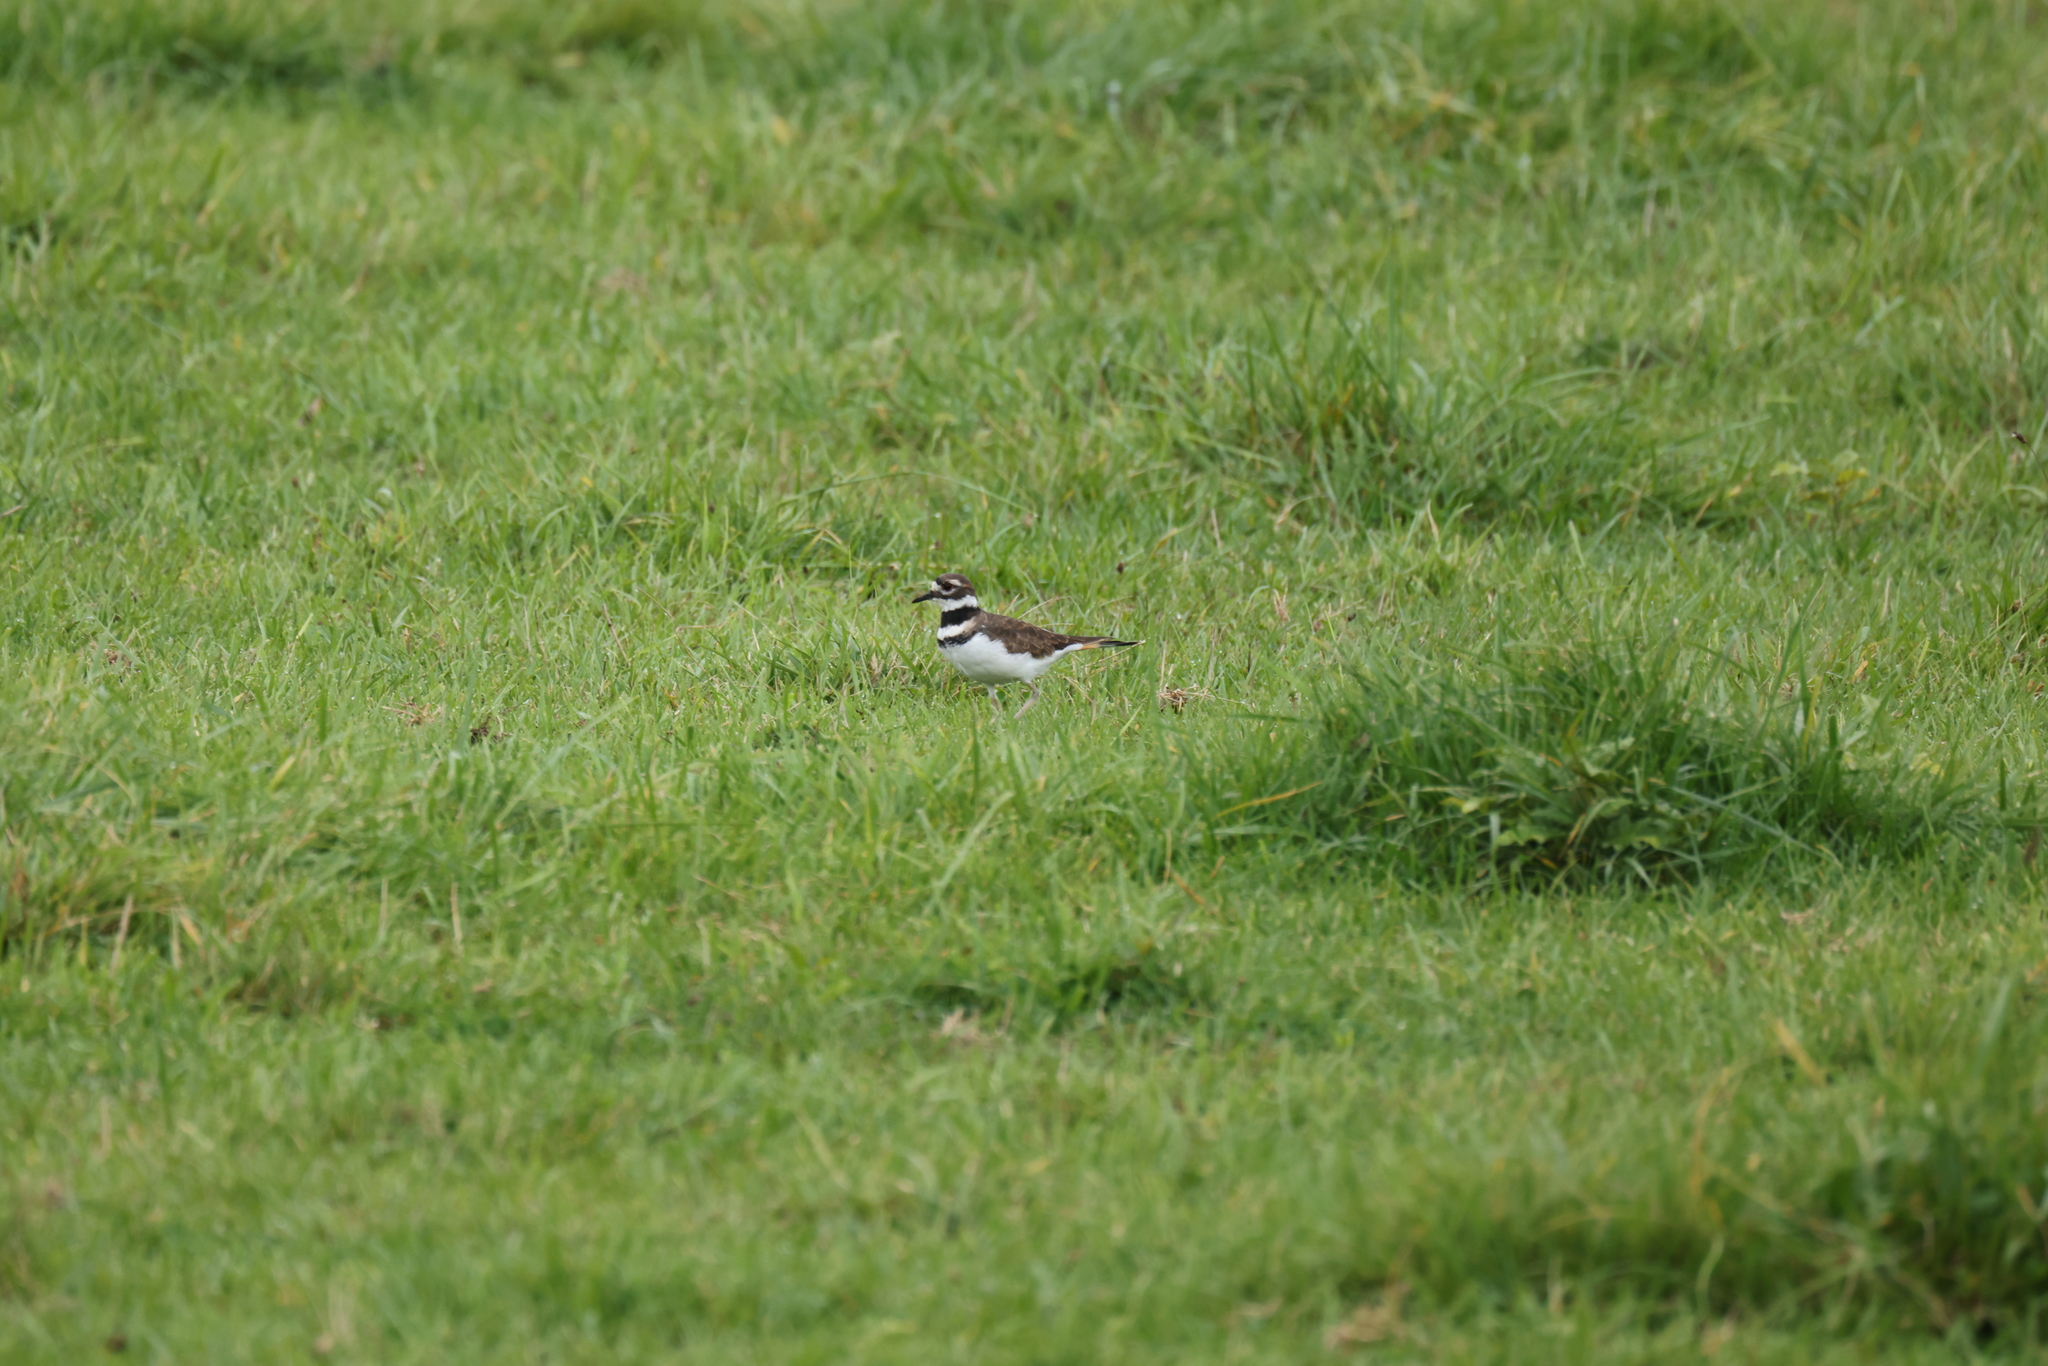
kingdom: Animalia
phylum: Chordata
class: Aves
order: Charadriiformes
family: Charadriidae
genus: Charadrius
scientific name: Charadrius vociferus
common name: Killdeer
